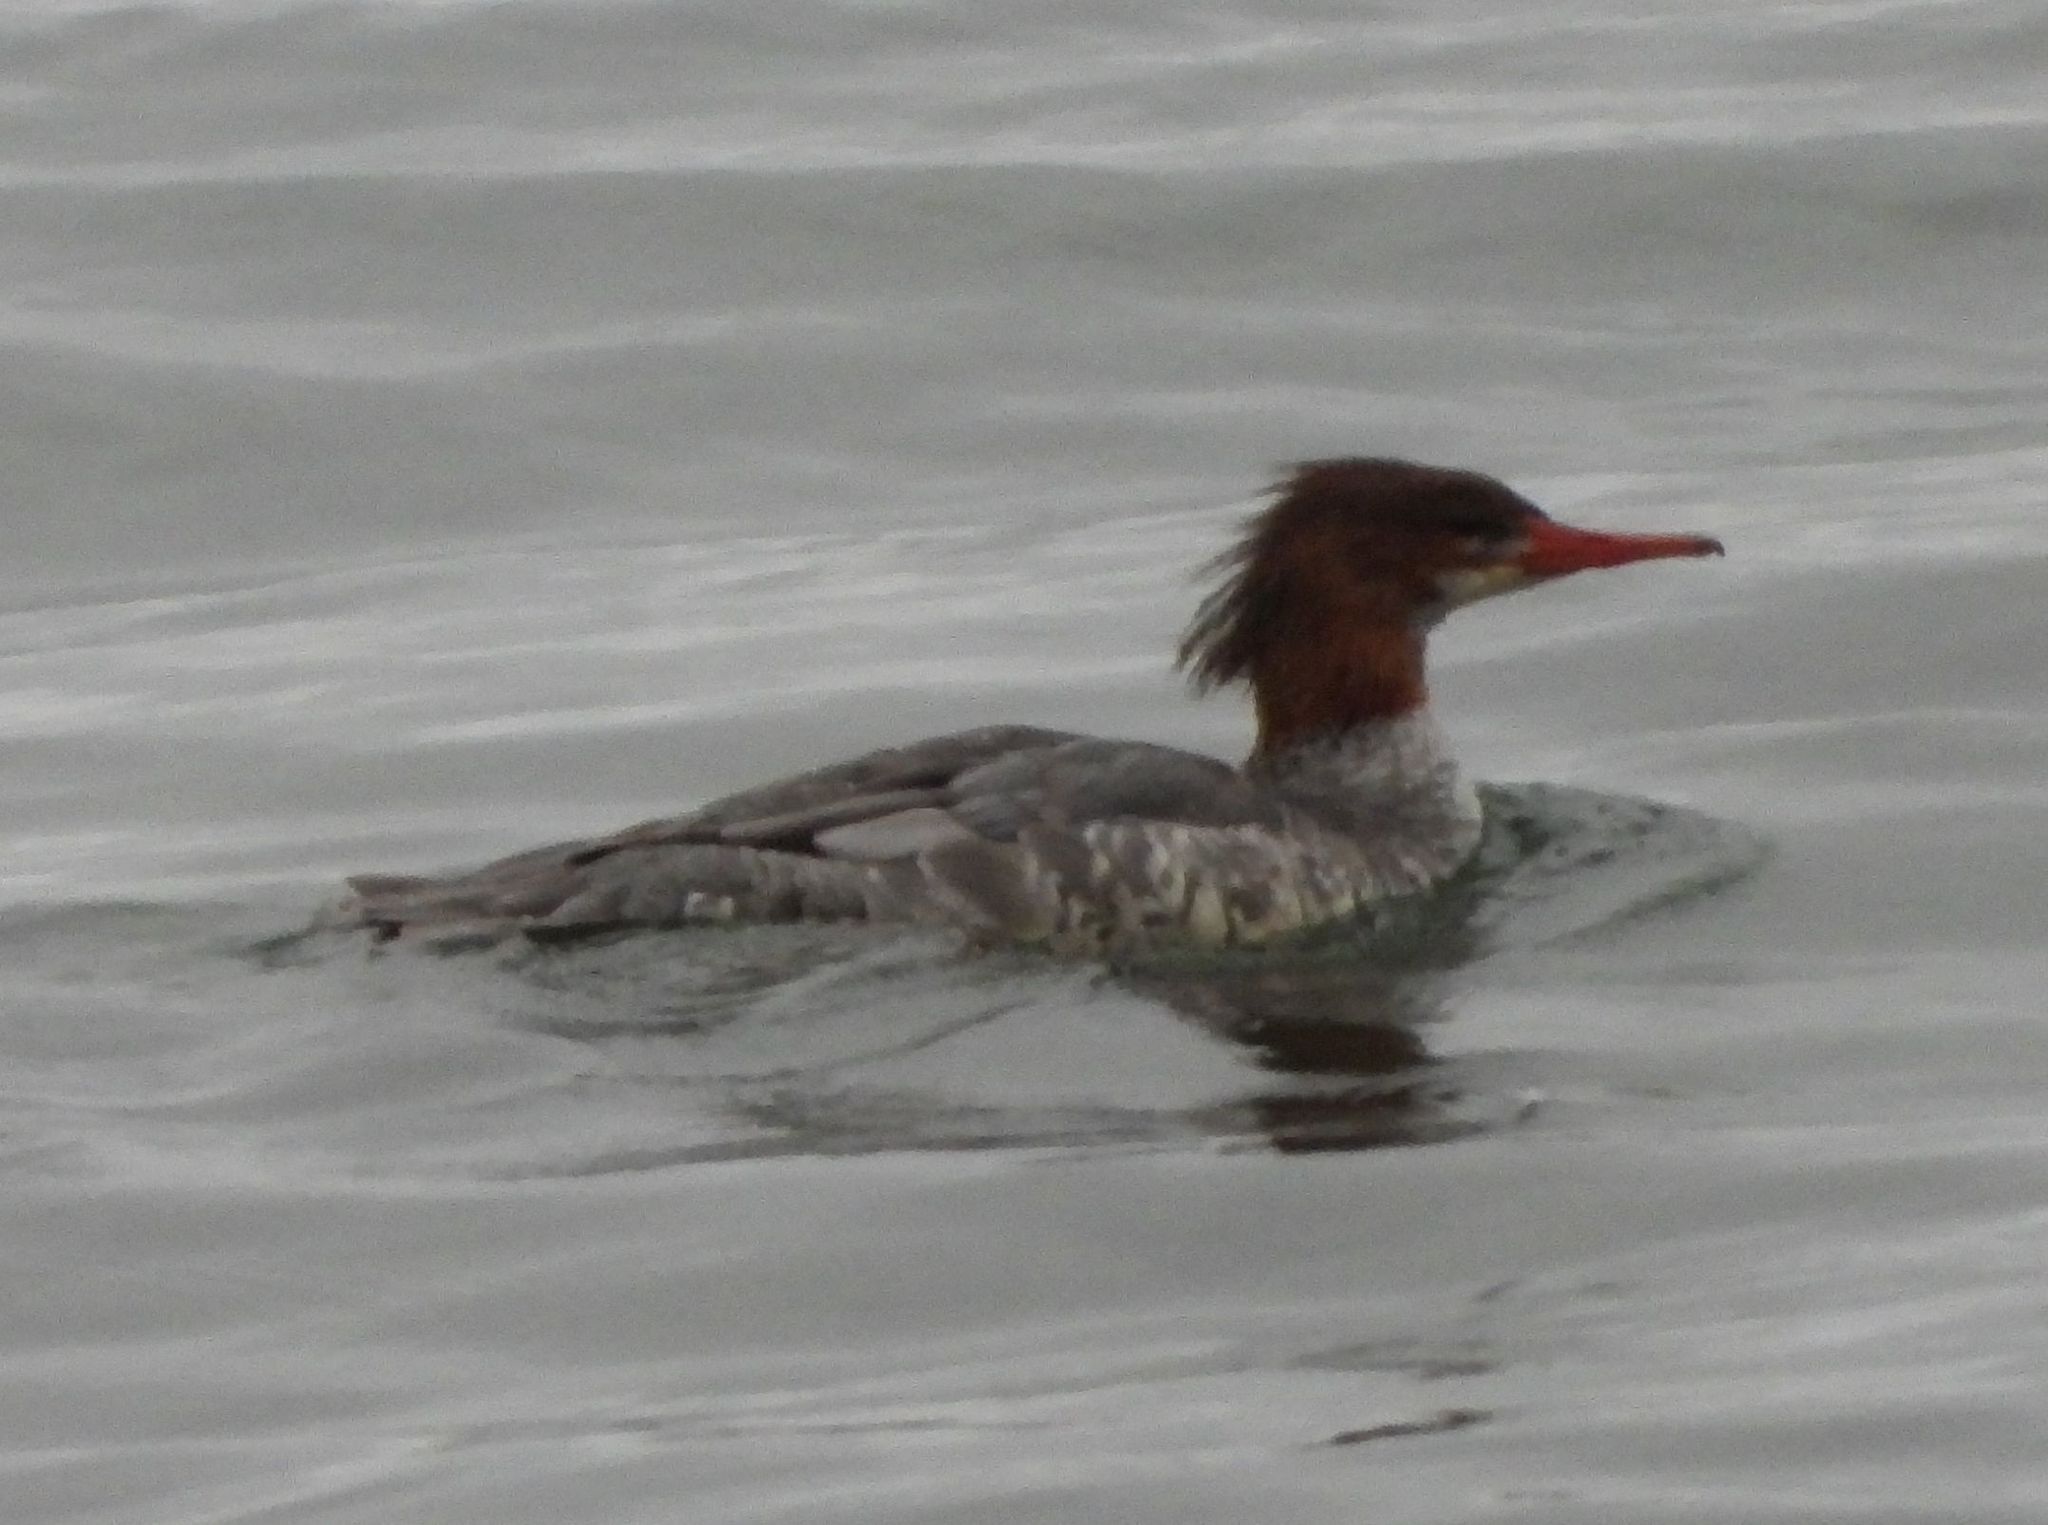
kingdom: Animalia
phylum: Chordata
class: Aves
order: Anseriformes
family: Anatidae
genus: Mergus
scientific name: Mergus merganser
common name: Common merganser
